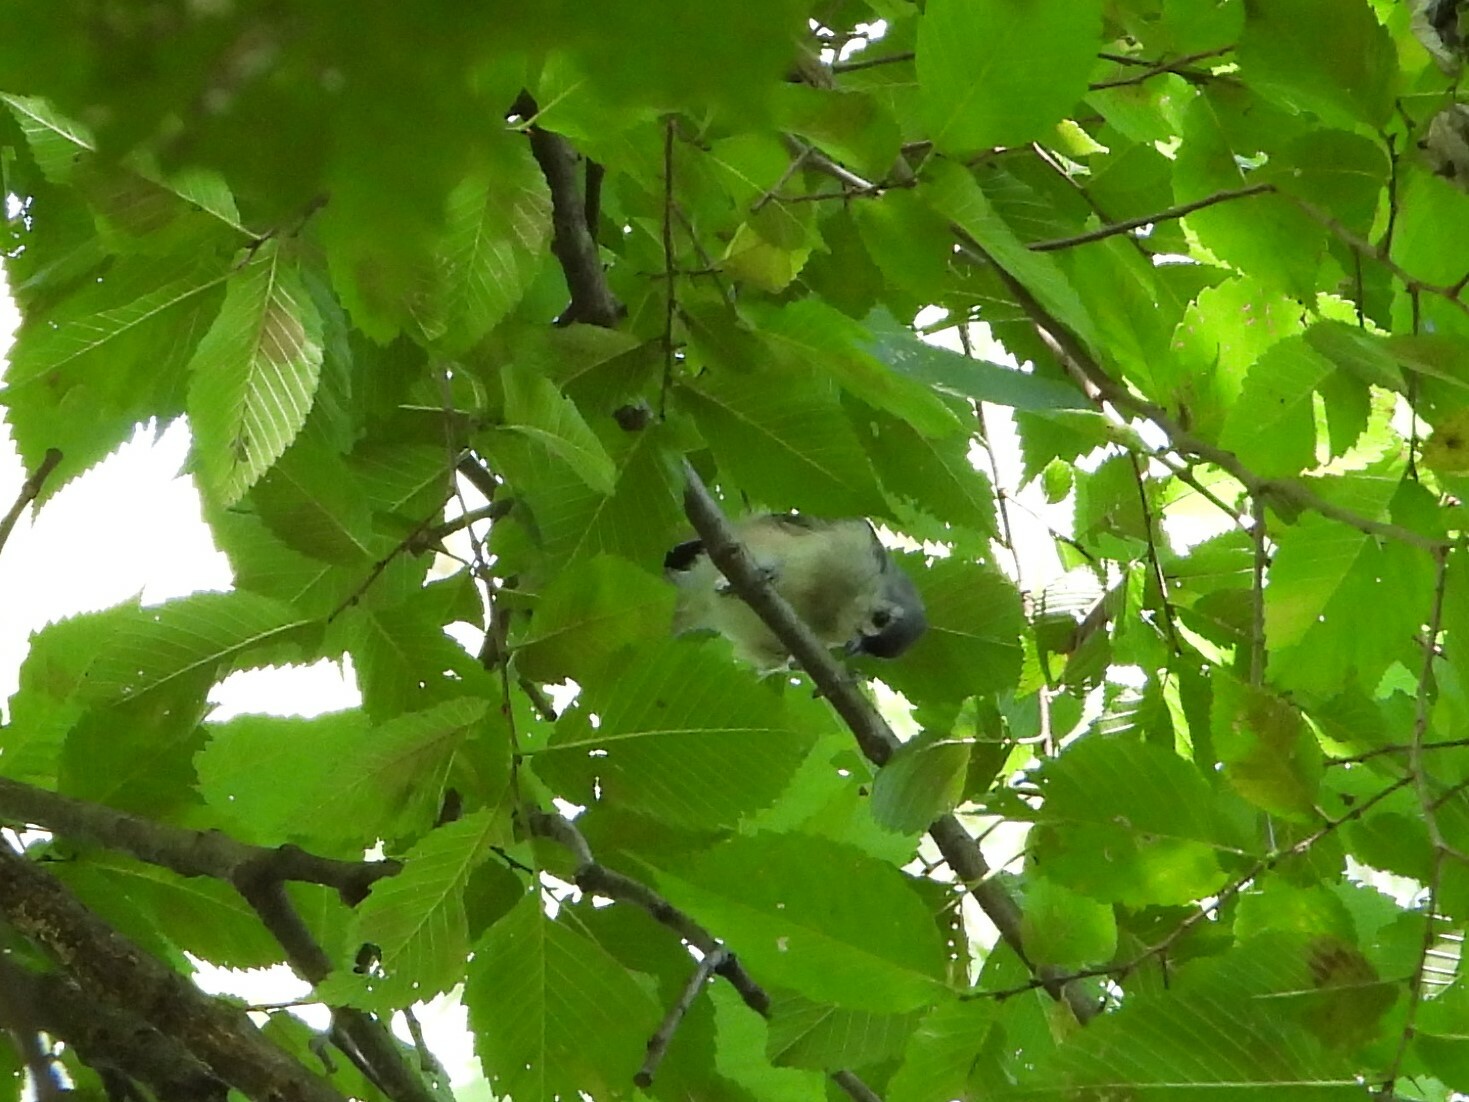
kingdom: Animalia
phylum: Chordata
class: Aves
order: Passeriformes
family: Paridae
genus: Baeolophus
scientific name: Baeolophus bicolor
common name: Tufted titmouse
